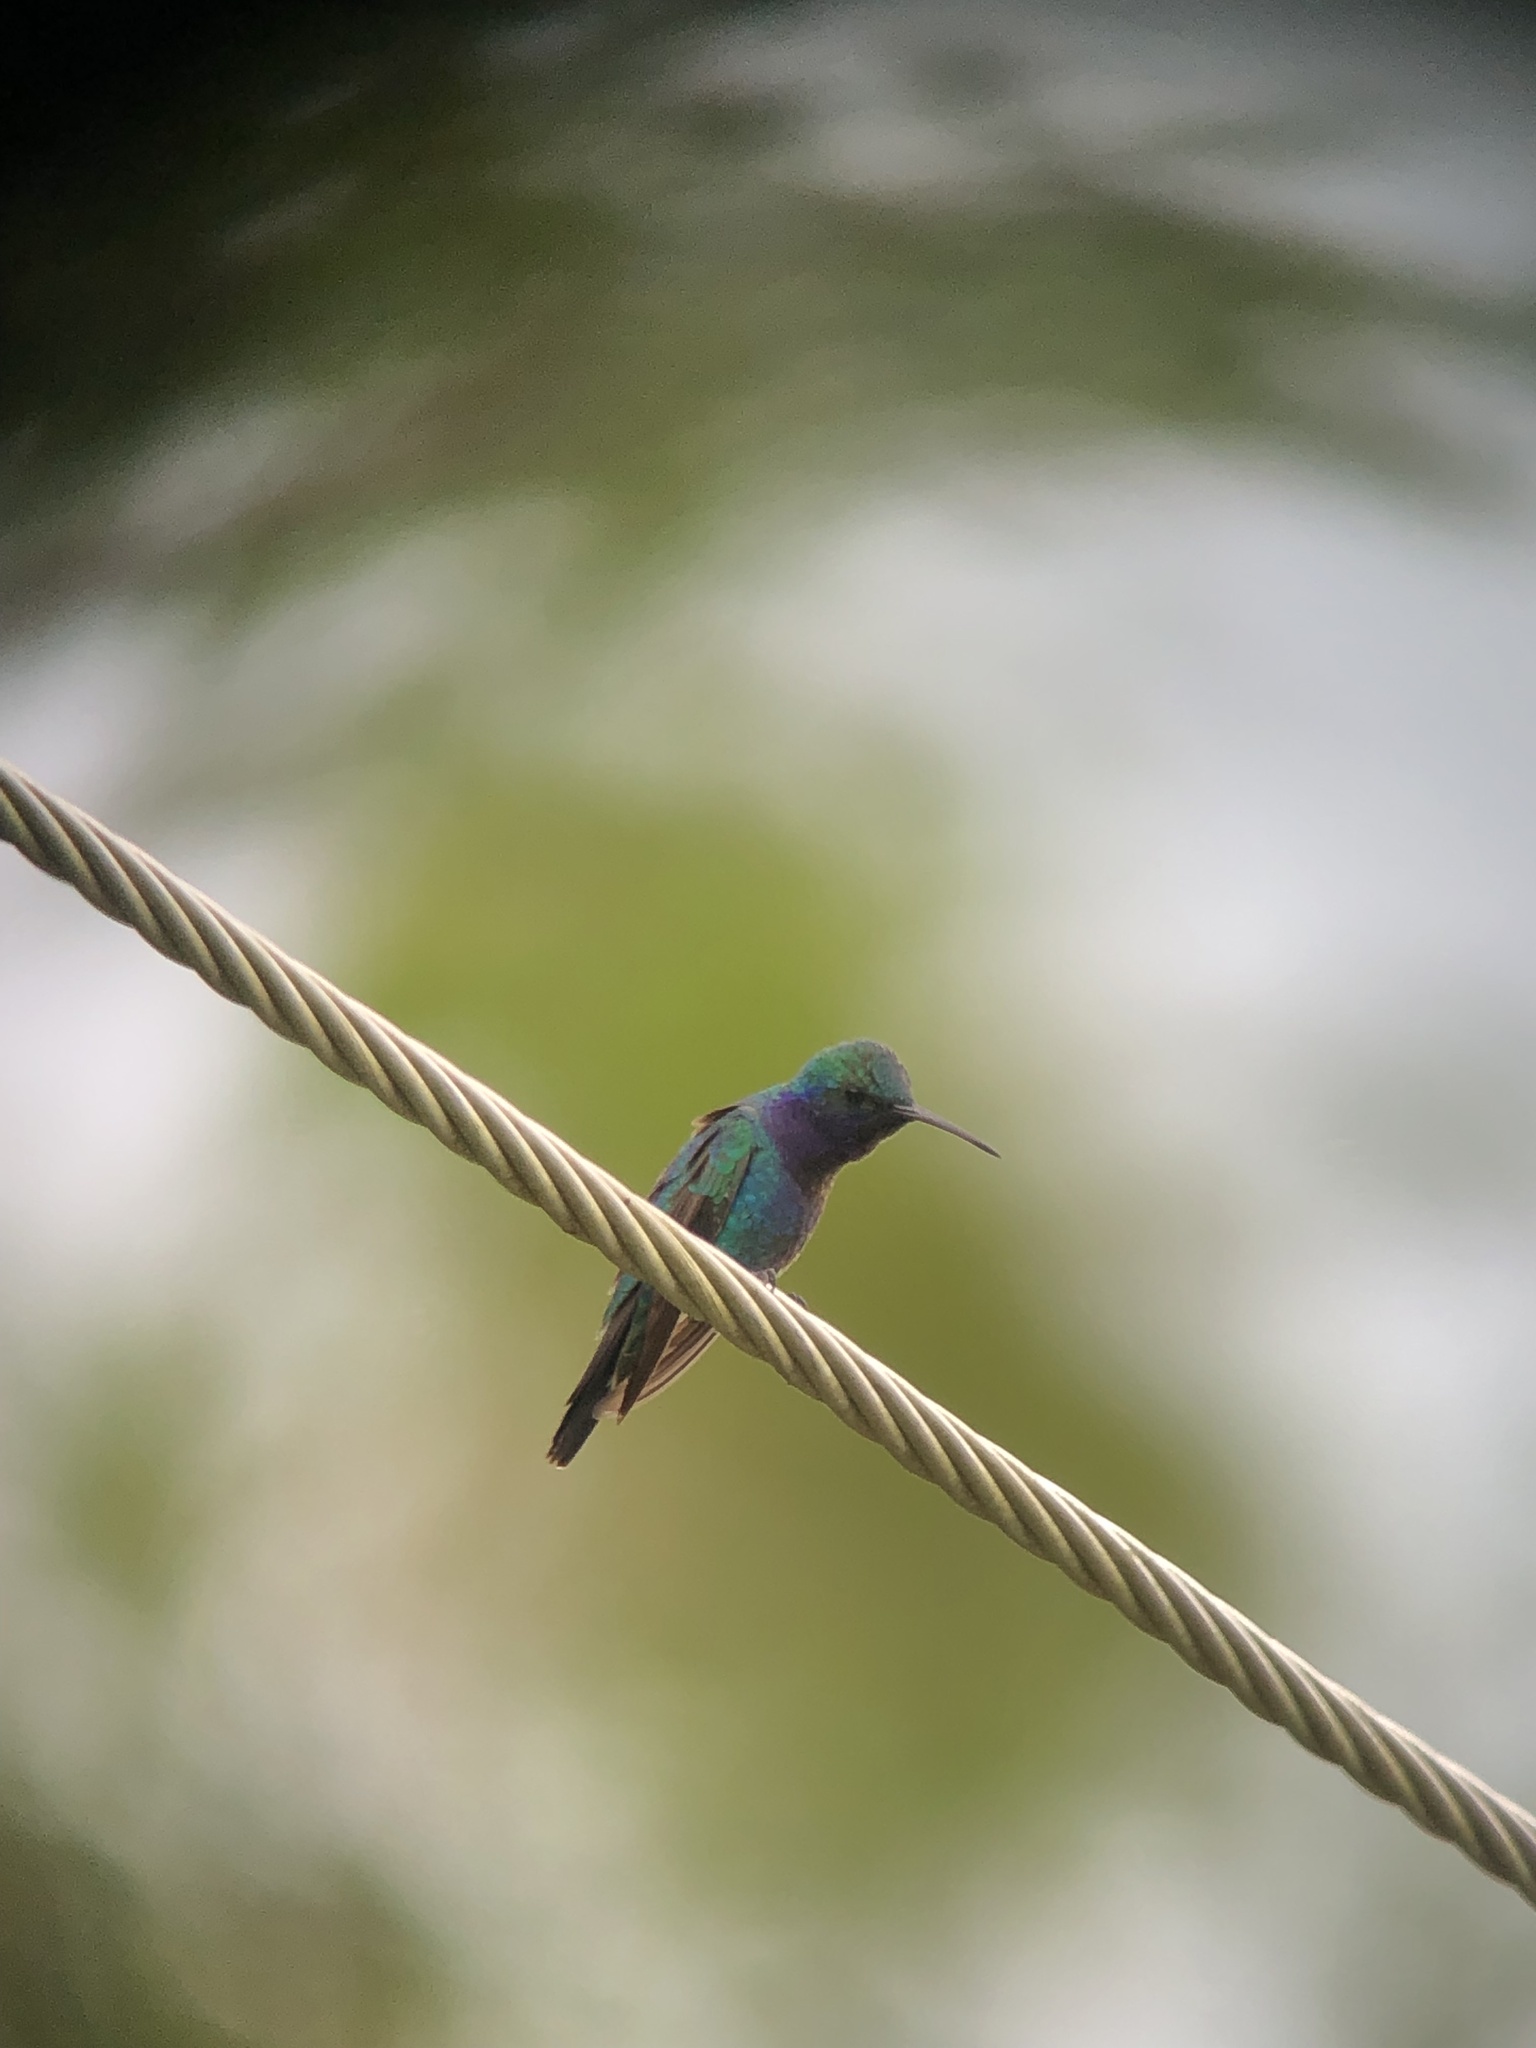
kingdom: Animalia
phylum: Chordata
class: Aves
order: Apodiformes
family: Trochilidae
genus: Chrysuronia
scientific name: Chrysuronia coeruleogularis
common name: Sapphire-throated hummingbird
